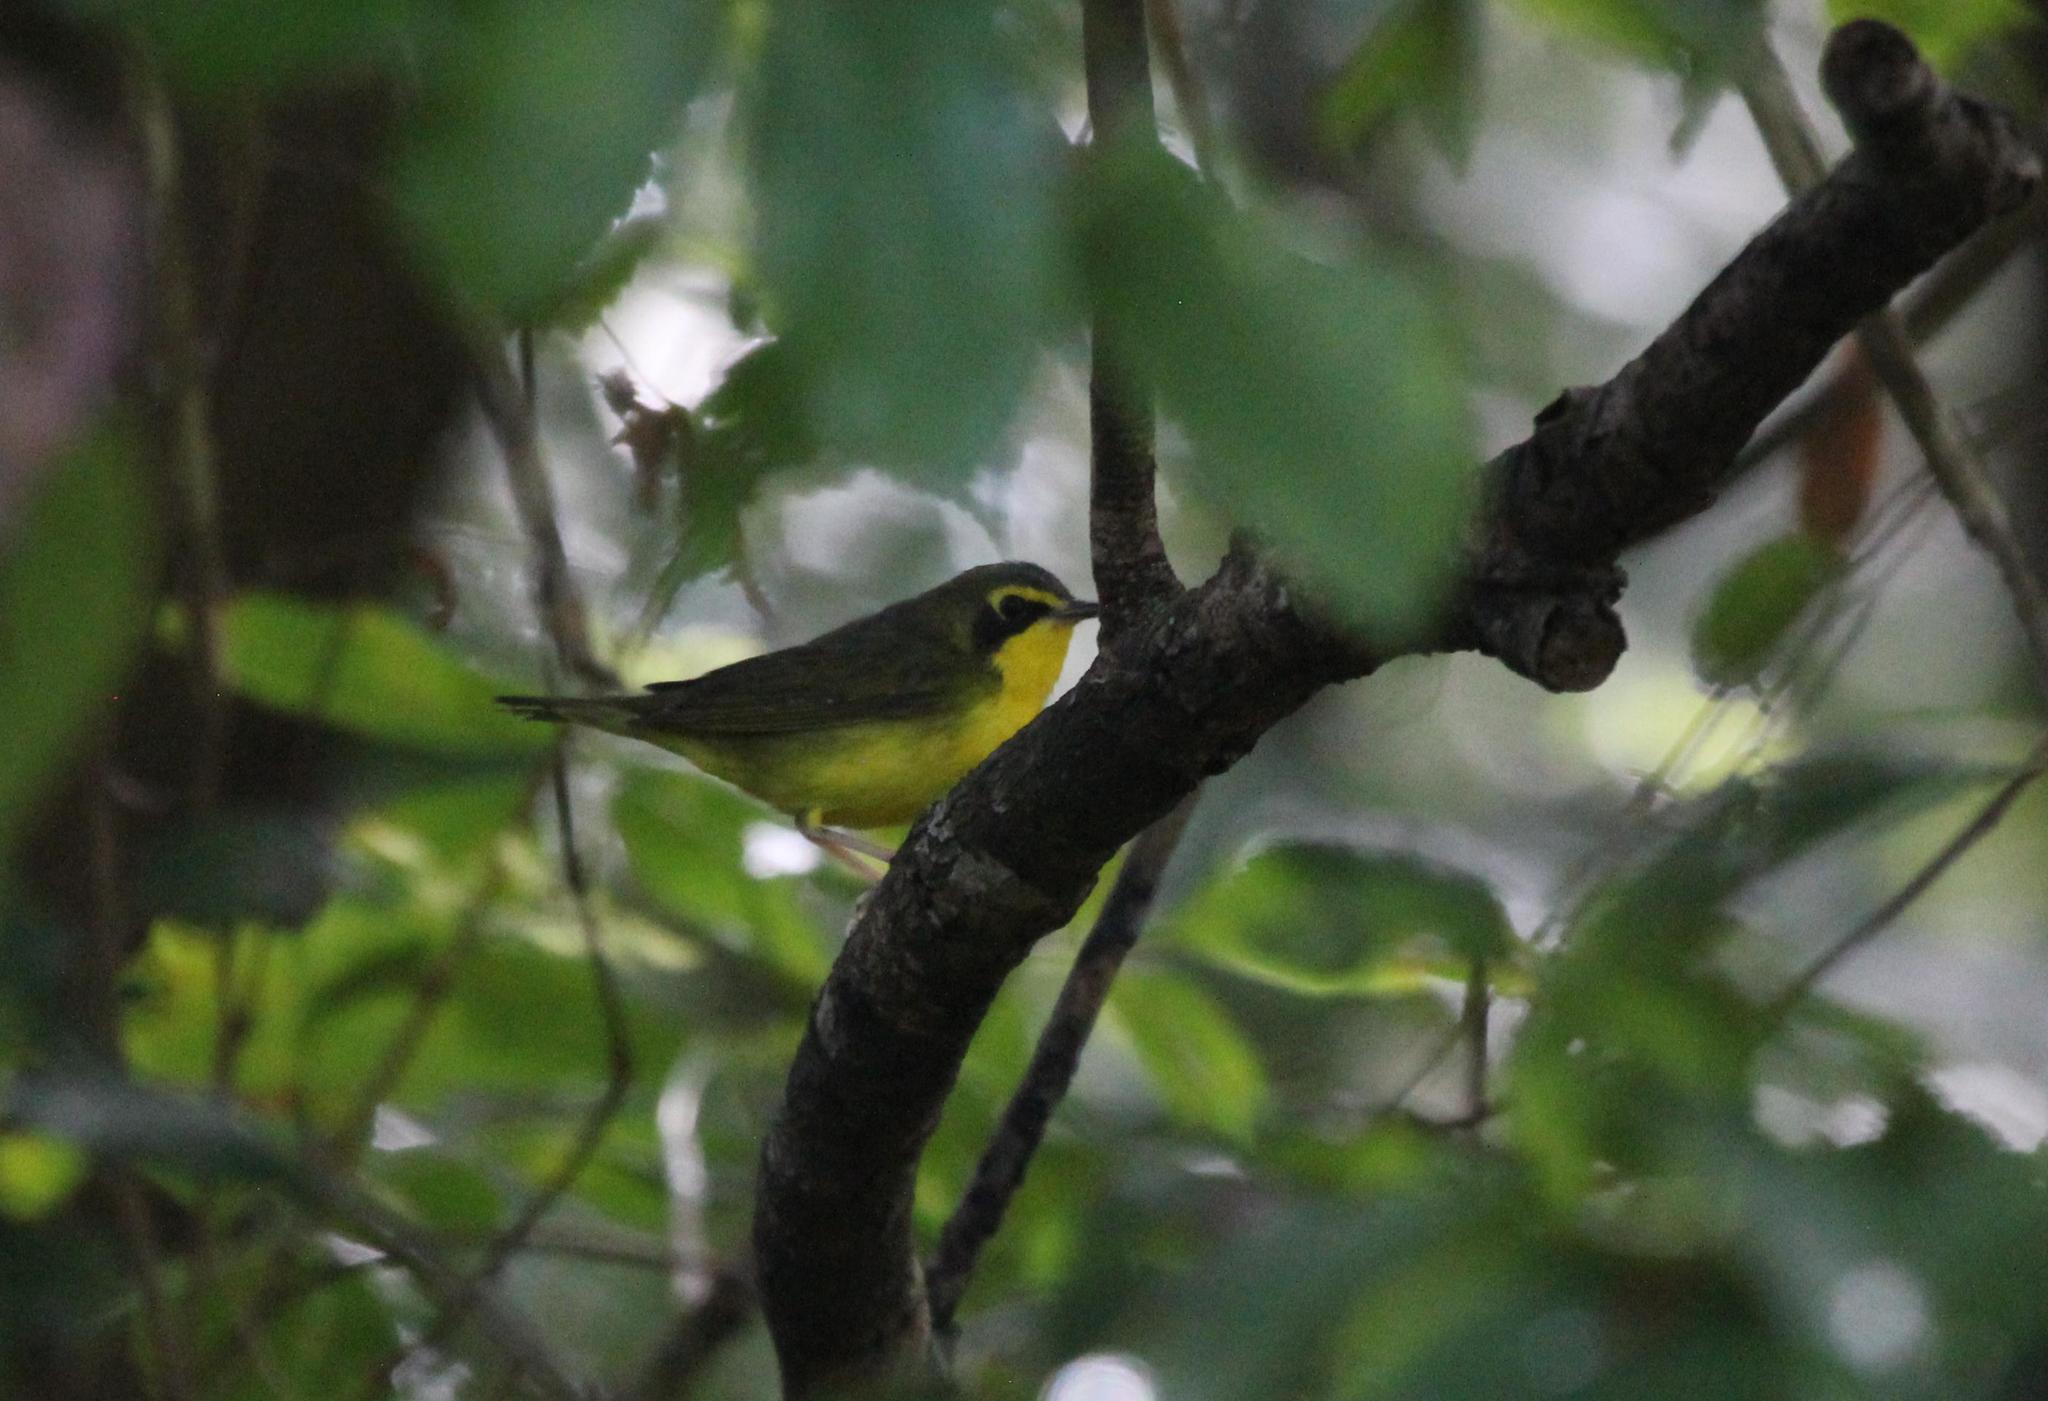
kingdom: Animalia
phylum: Chordata
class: Aves
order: Passeriformes
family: Parulidae
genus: Geothlypis
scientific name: Geothlypis formosa
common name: Kentucky warbler
